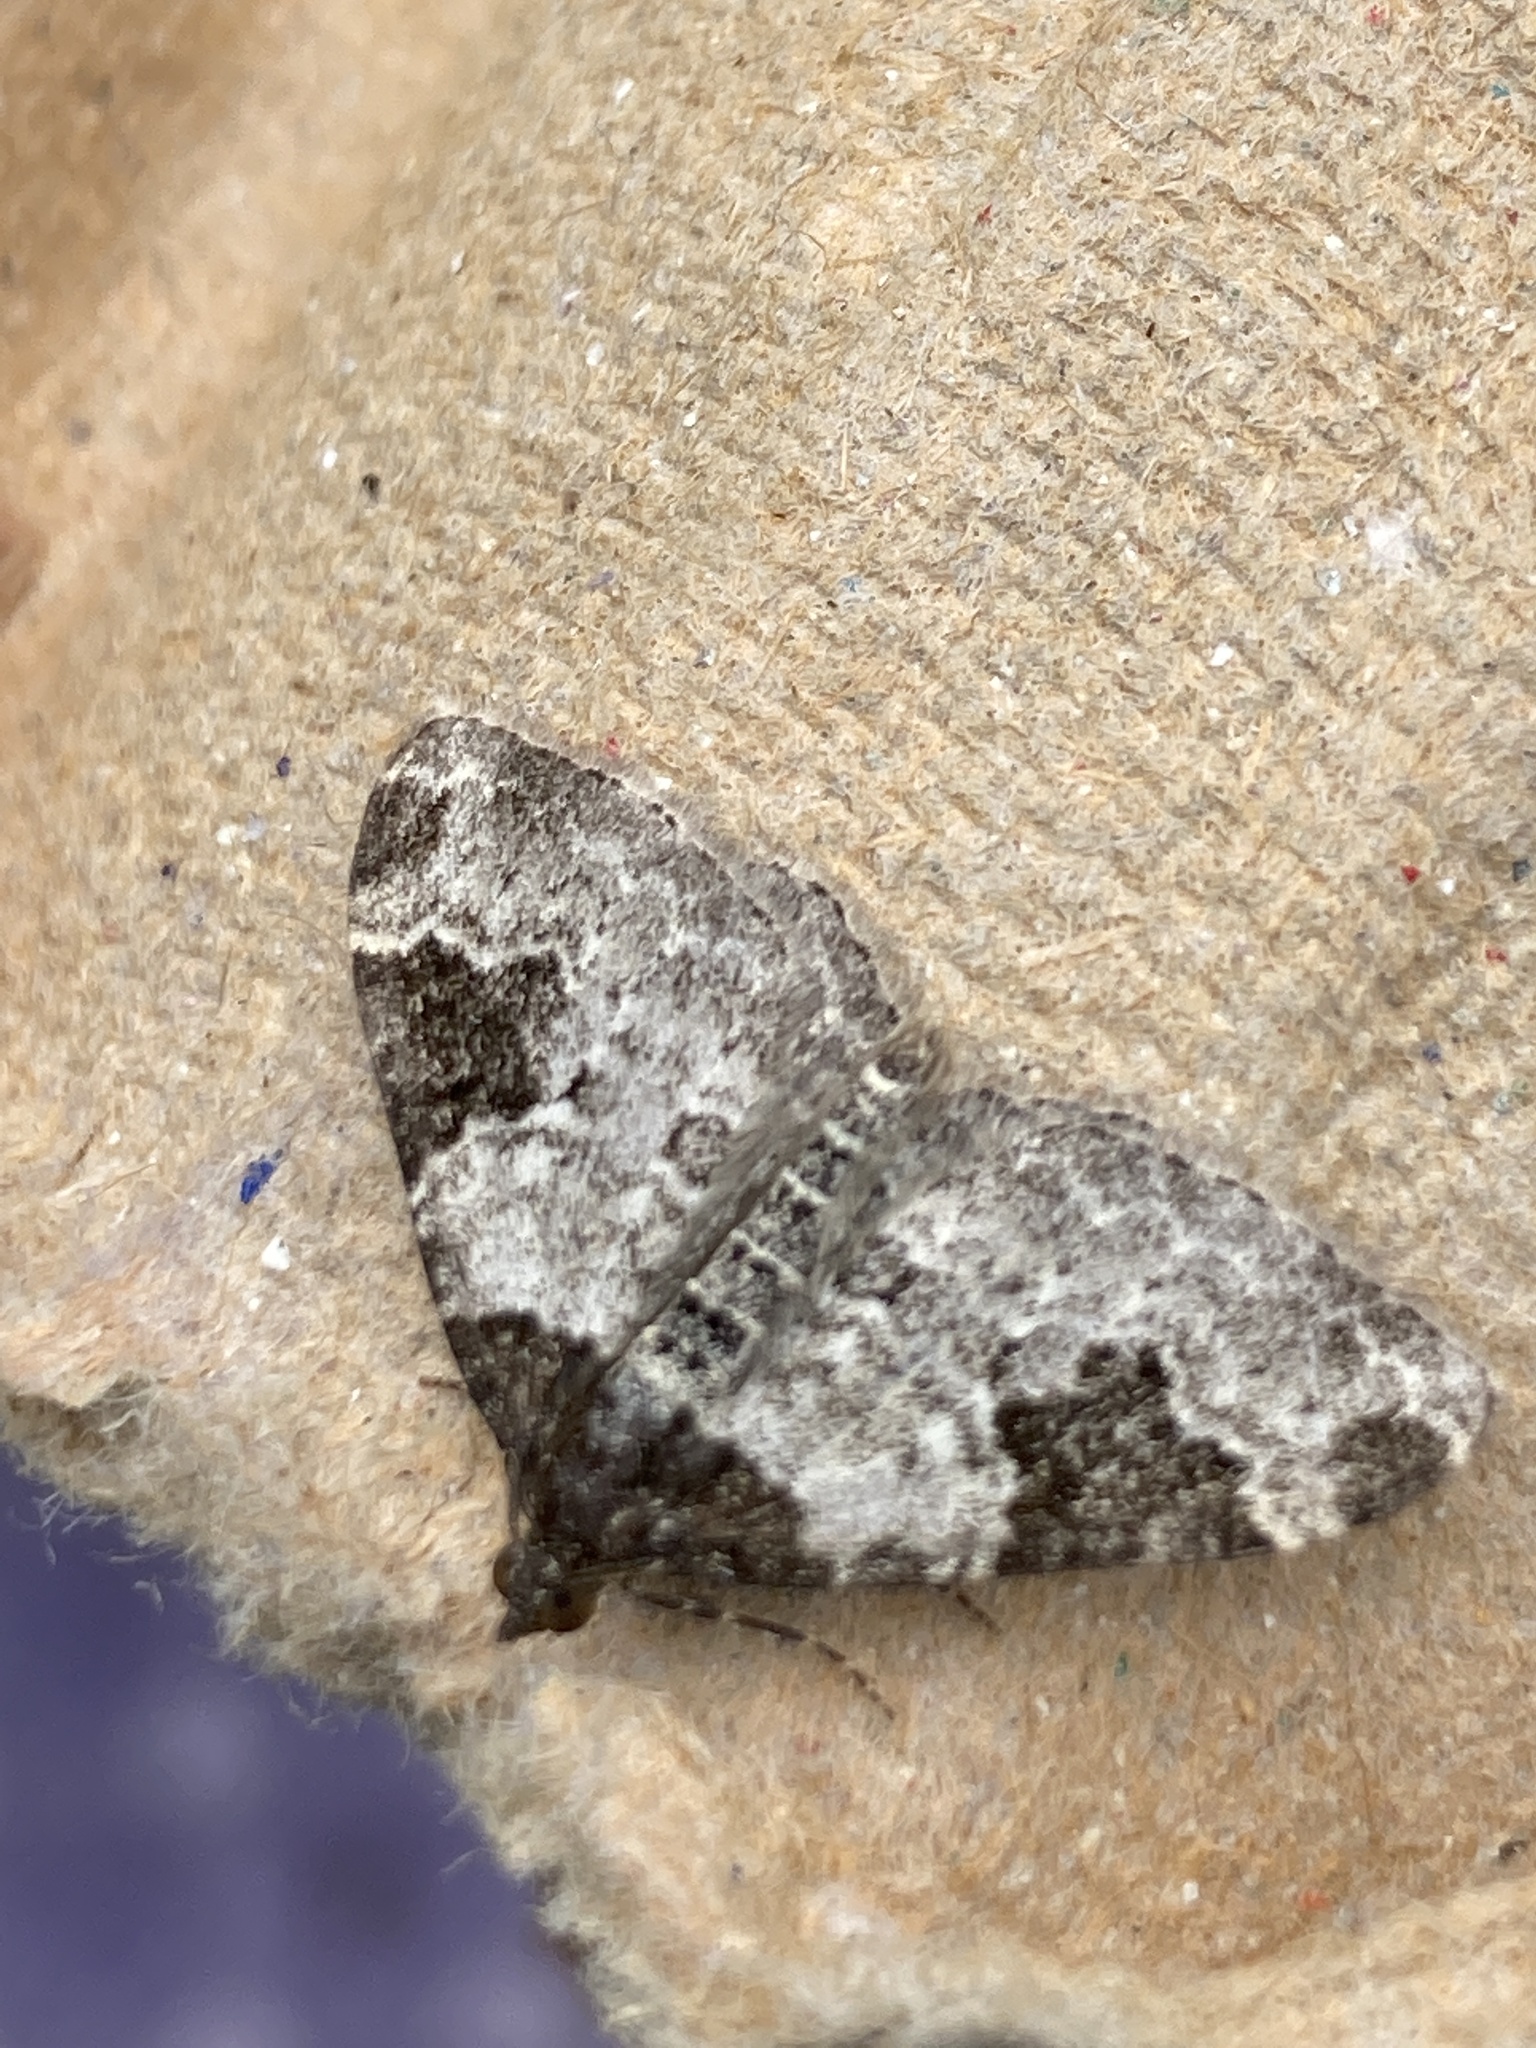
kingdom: Animalia
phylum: Arthropoda
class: Insecta
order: Lepidoptera
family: Geometridae
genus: Xanthorhoe
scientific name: Xanthorhoe fluctuata
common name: Garden carpet
